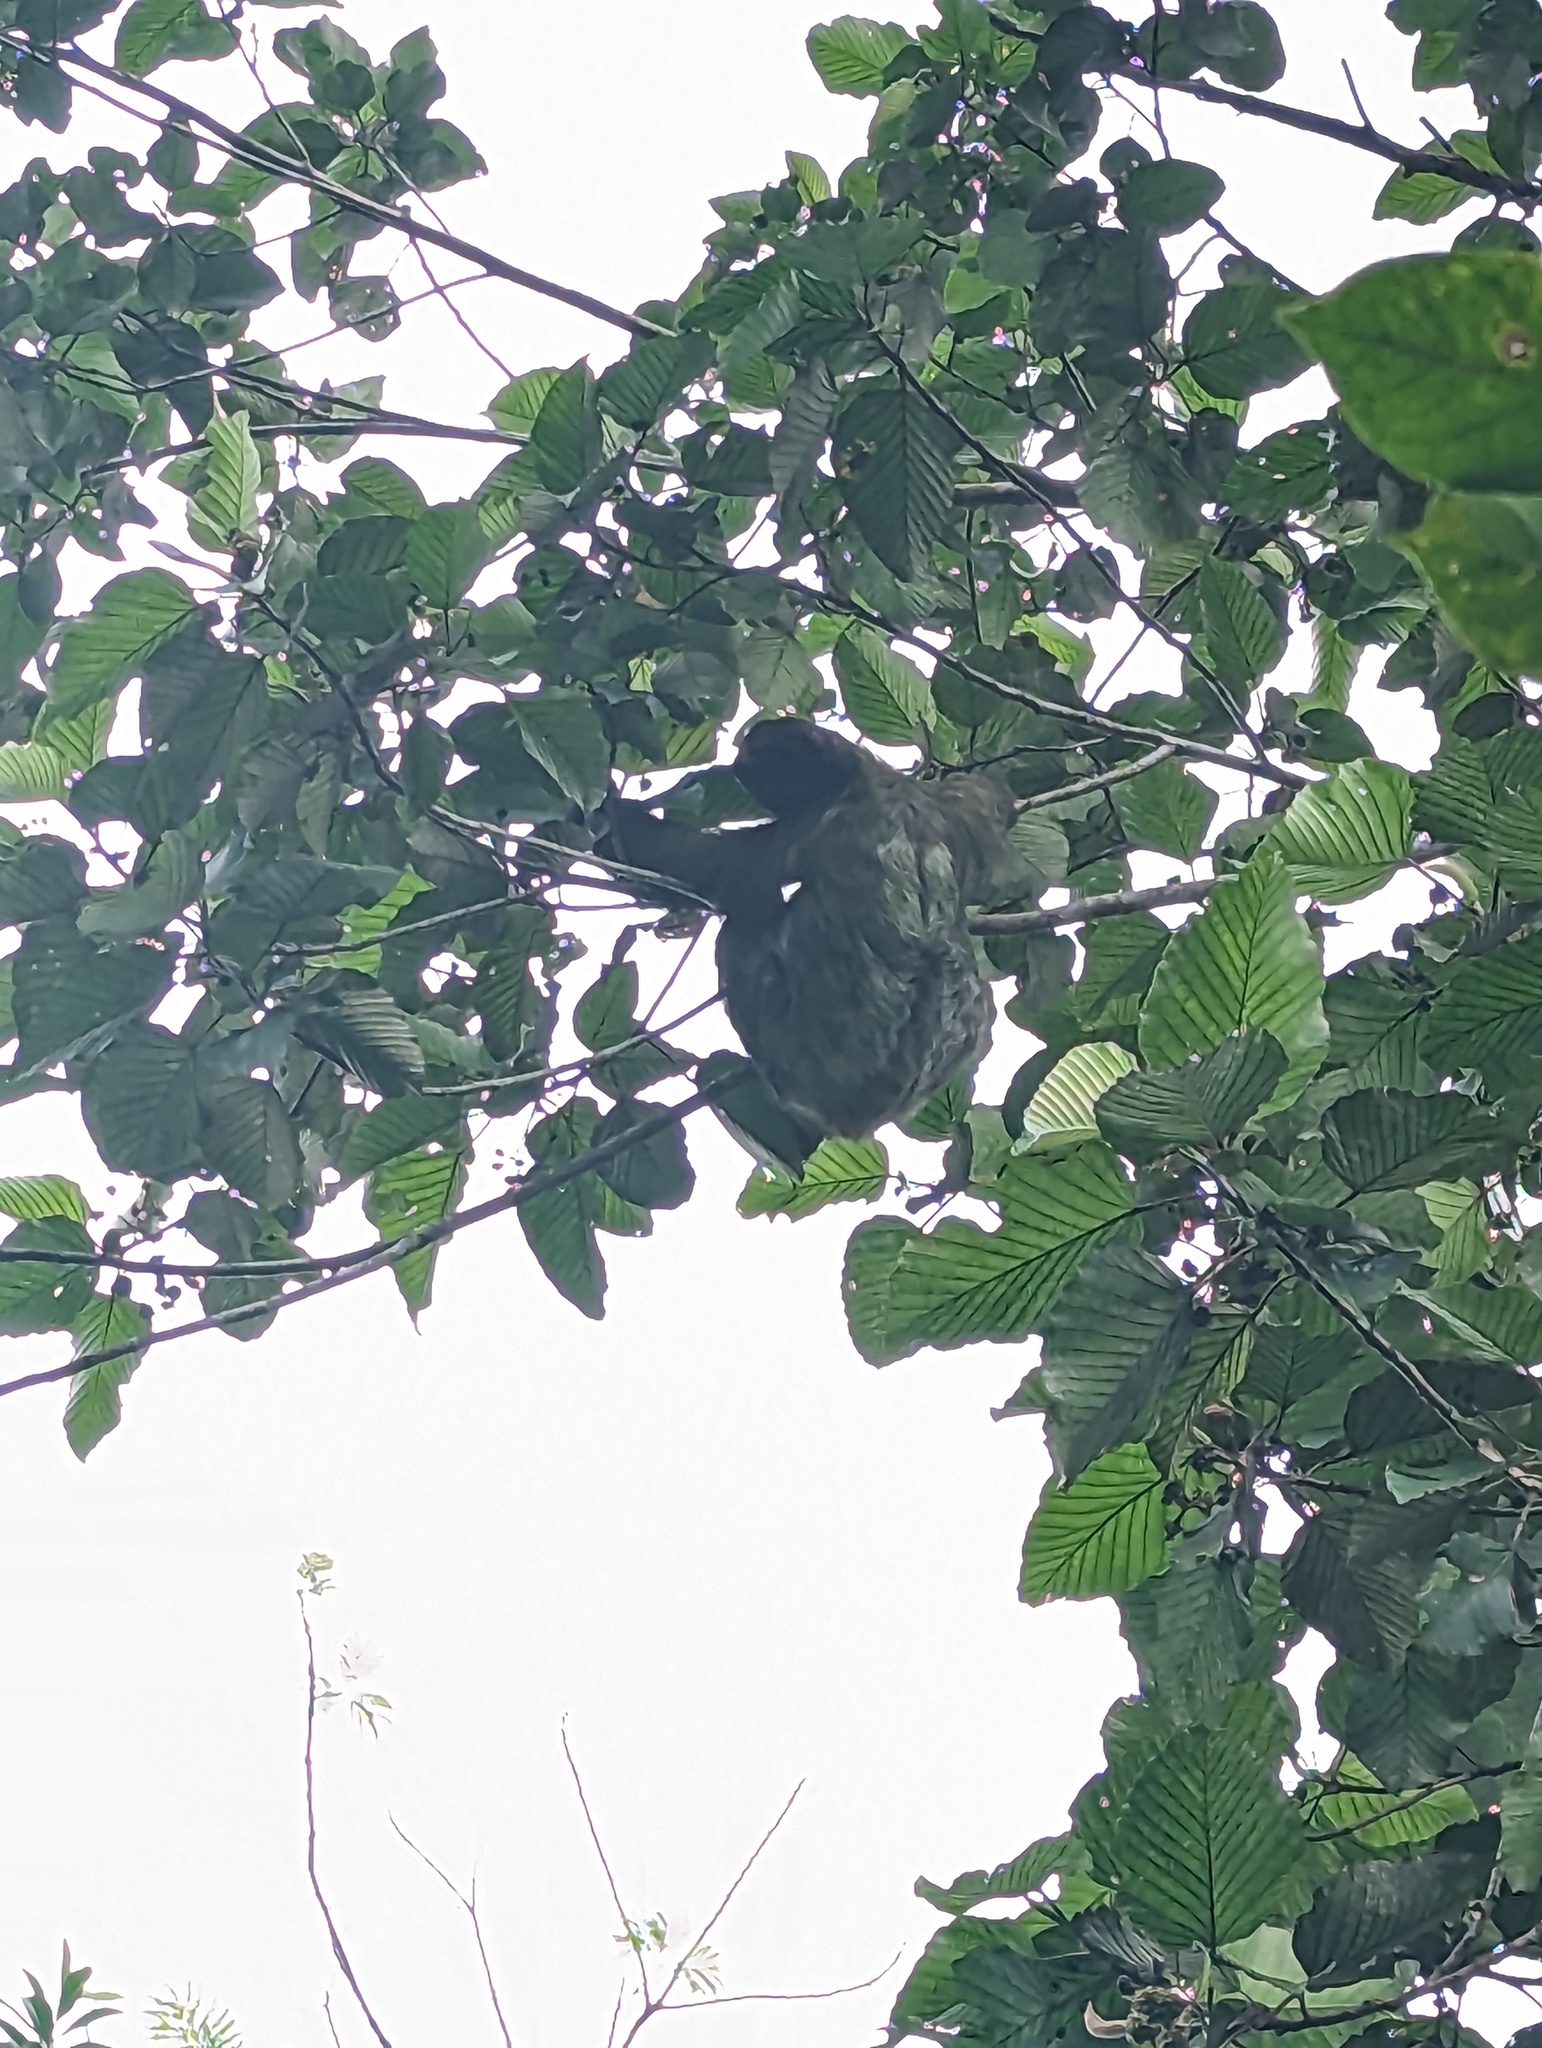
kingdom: Animalia
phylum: Chordata
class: Mammalia
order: Pilosa
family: Bradypodidae
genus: Bradypus
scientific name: Bradypus variegatus
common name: Brown-throated three-toed sloth
